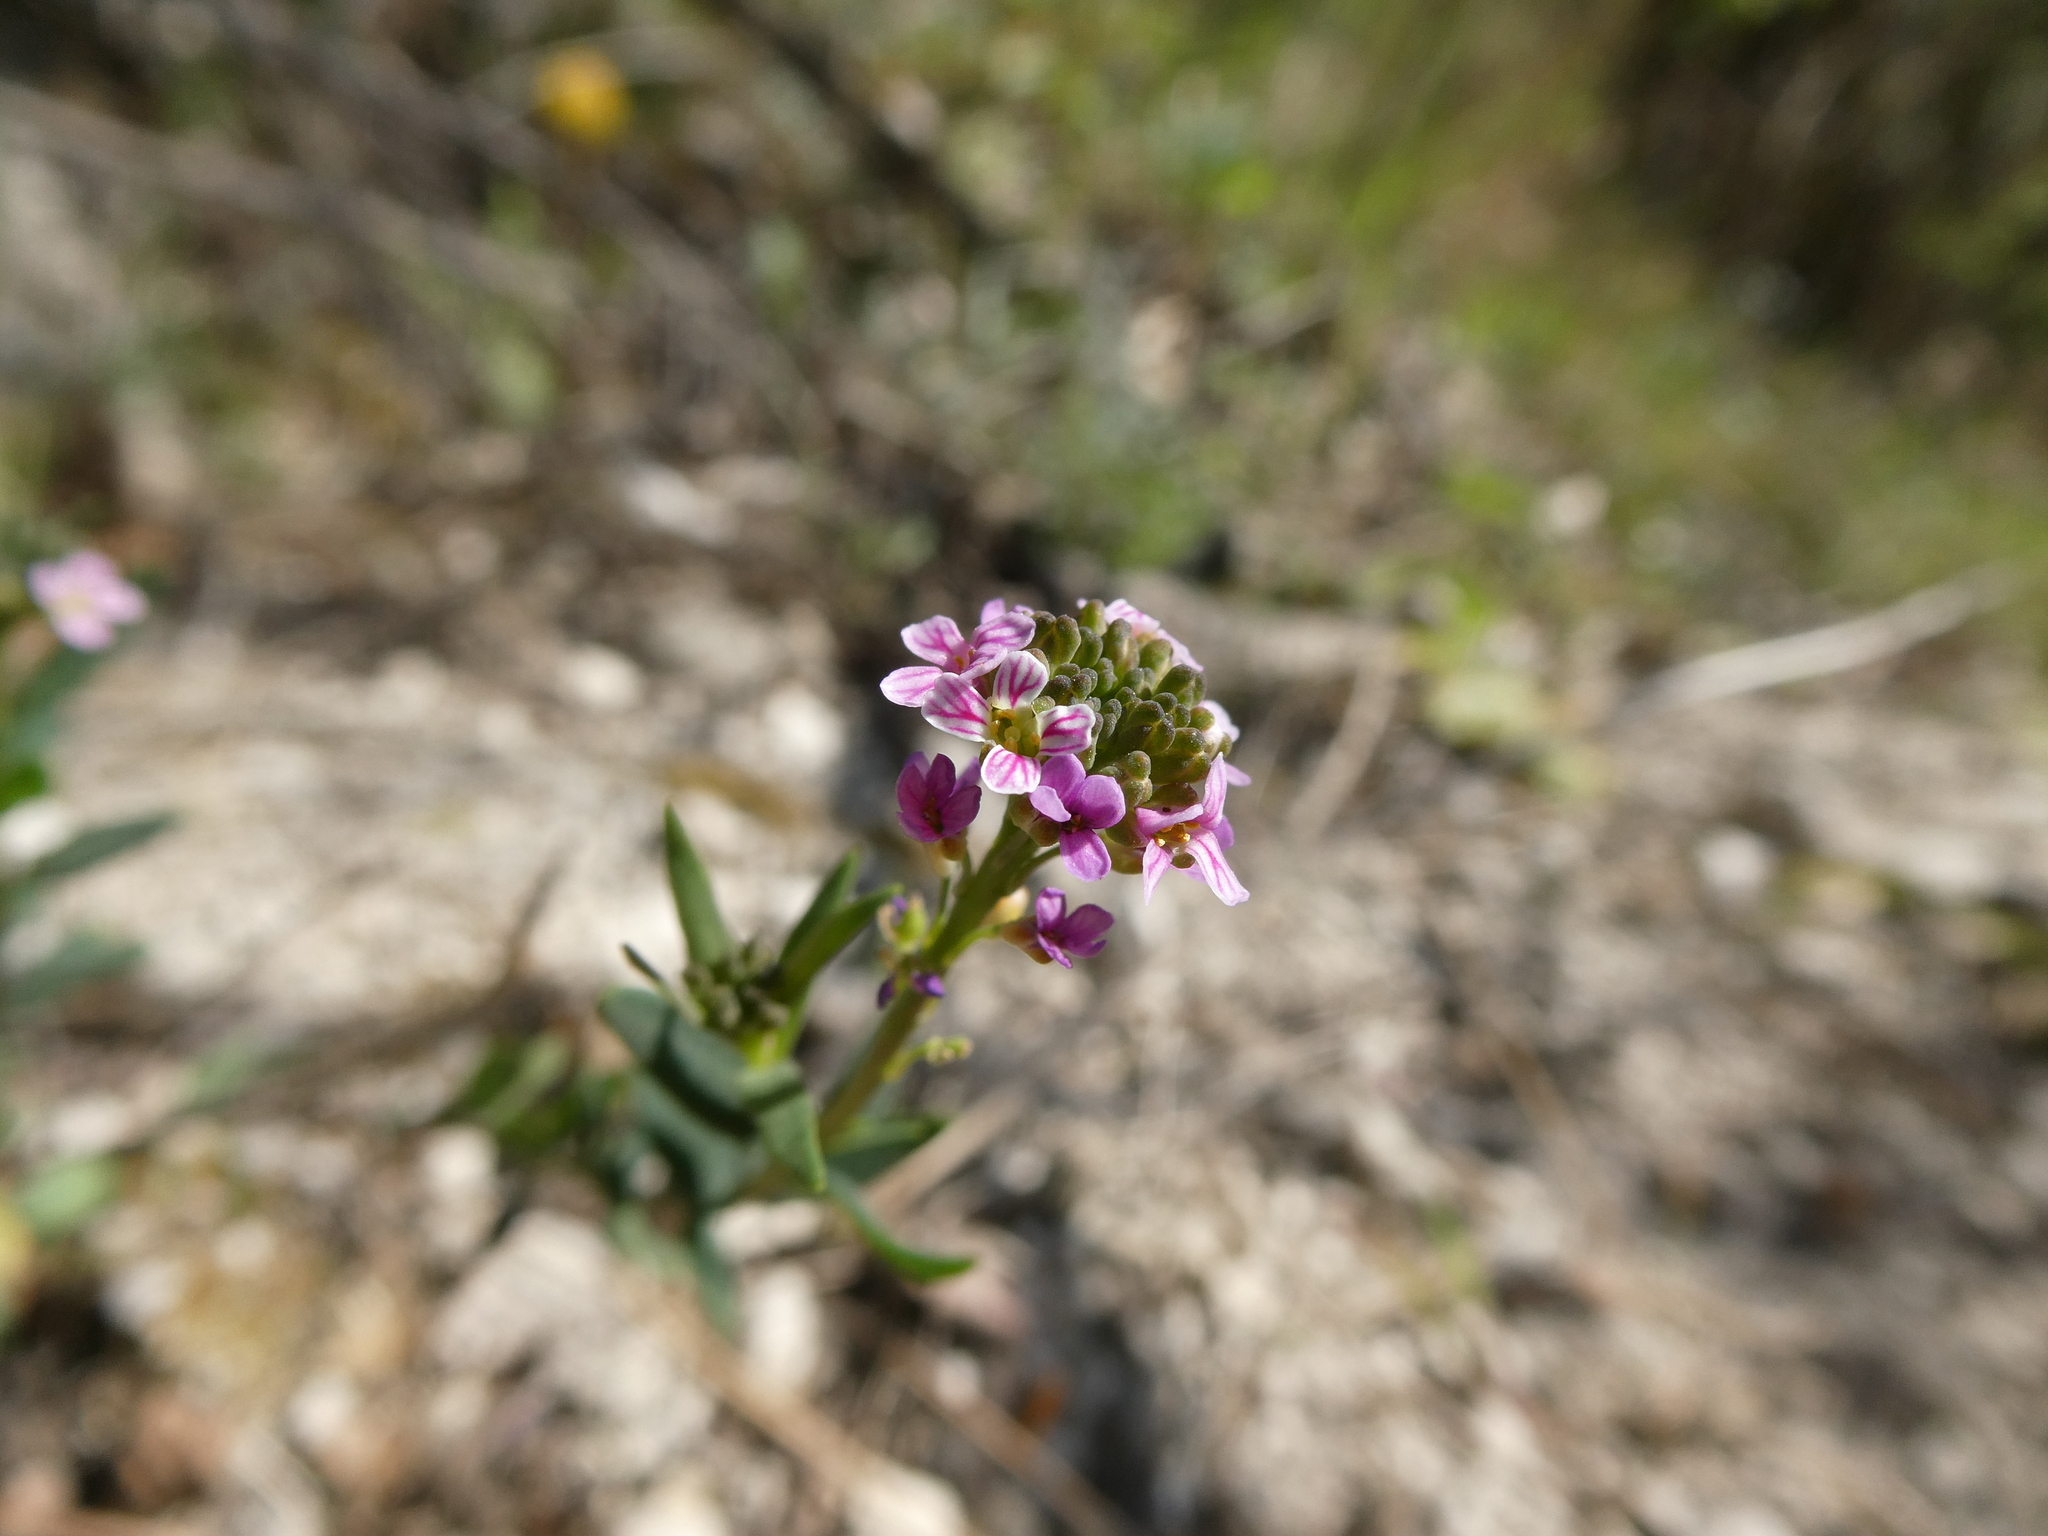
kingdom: Plantae
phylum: Tracheophyta
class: Magnoliopsida
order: Brassicales
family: Brassicaceae
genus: Aethionema
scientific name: Aethionema saxatile
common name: Burnt candytuft
